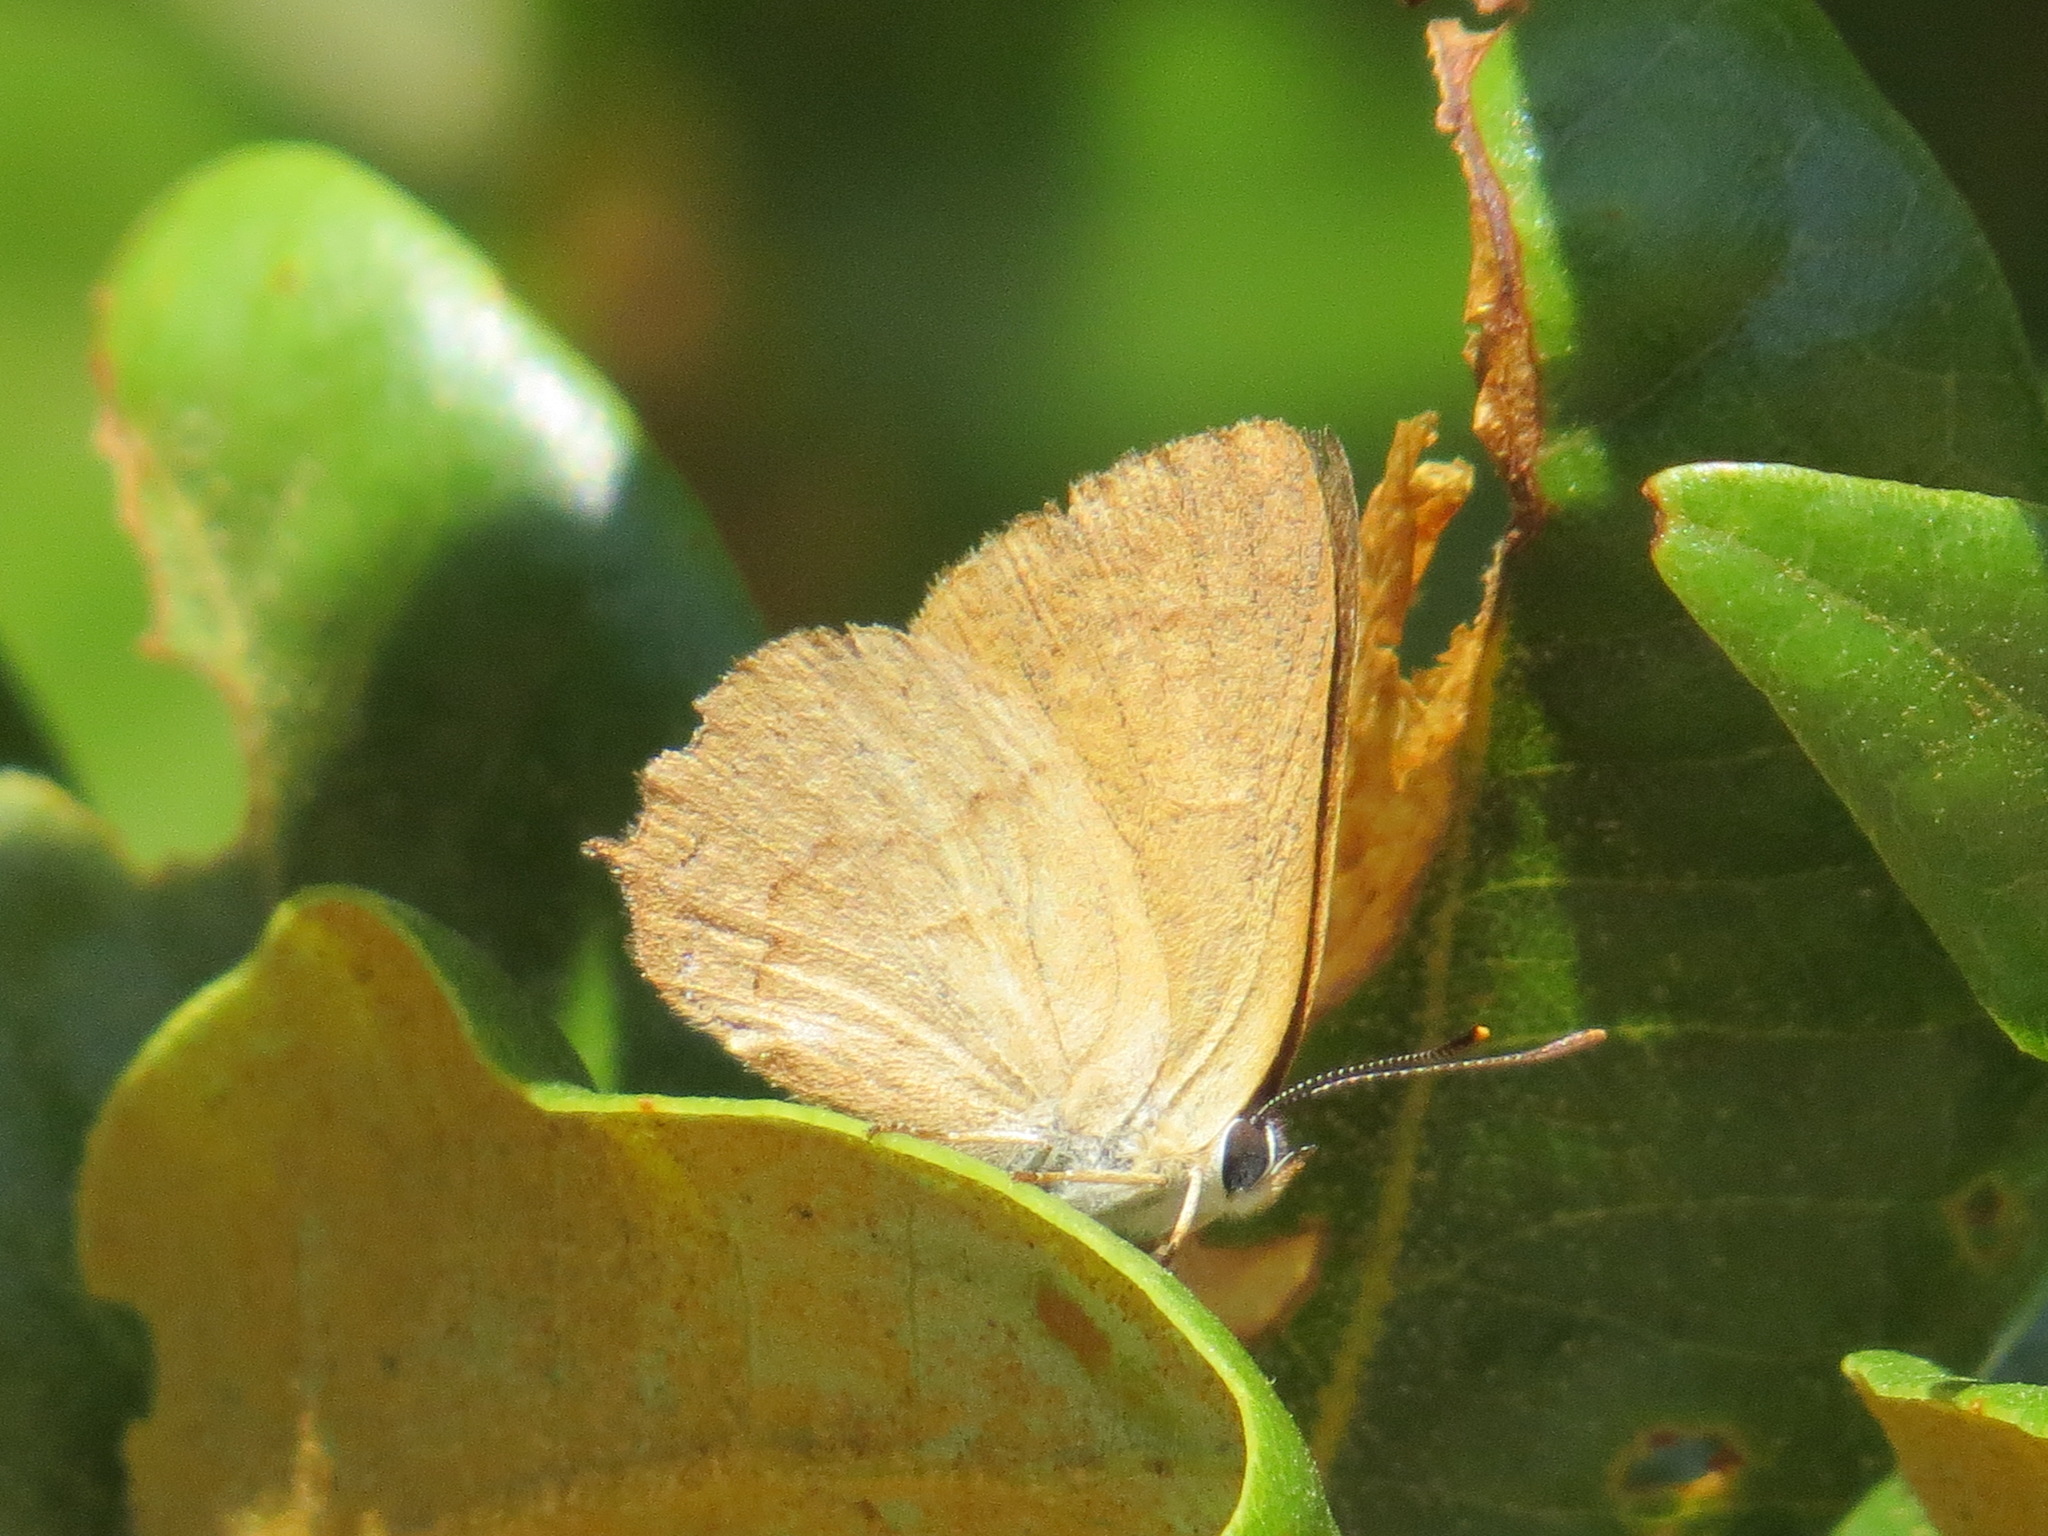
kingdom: Animalia
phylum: Arthropoda
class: Insecta
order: Lepidoptera
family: Lycaenidae
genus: Habrodais
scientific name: Habrodais grunus
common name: Golden hairstreak
